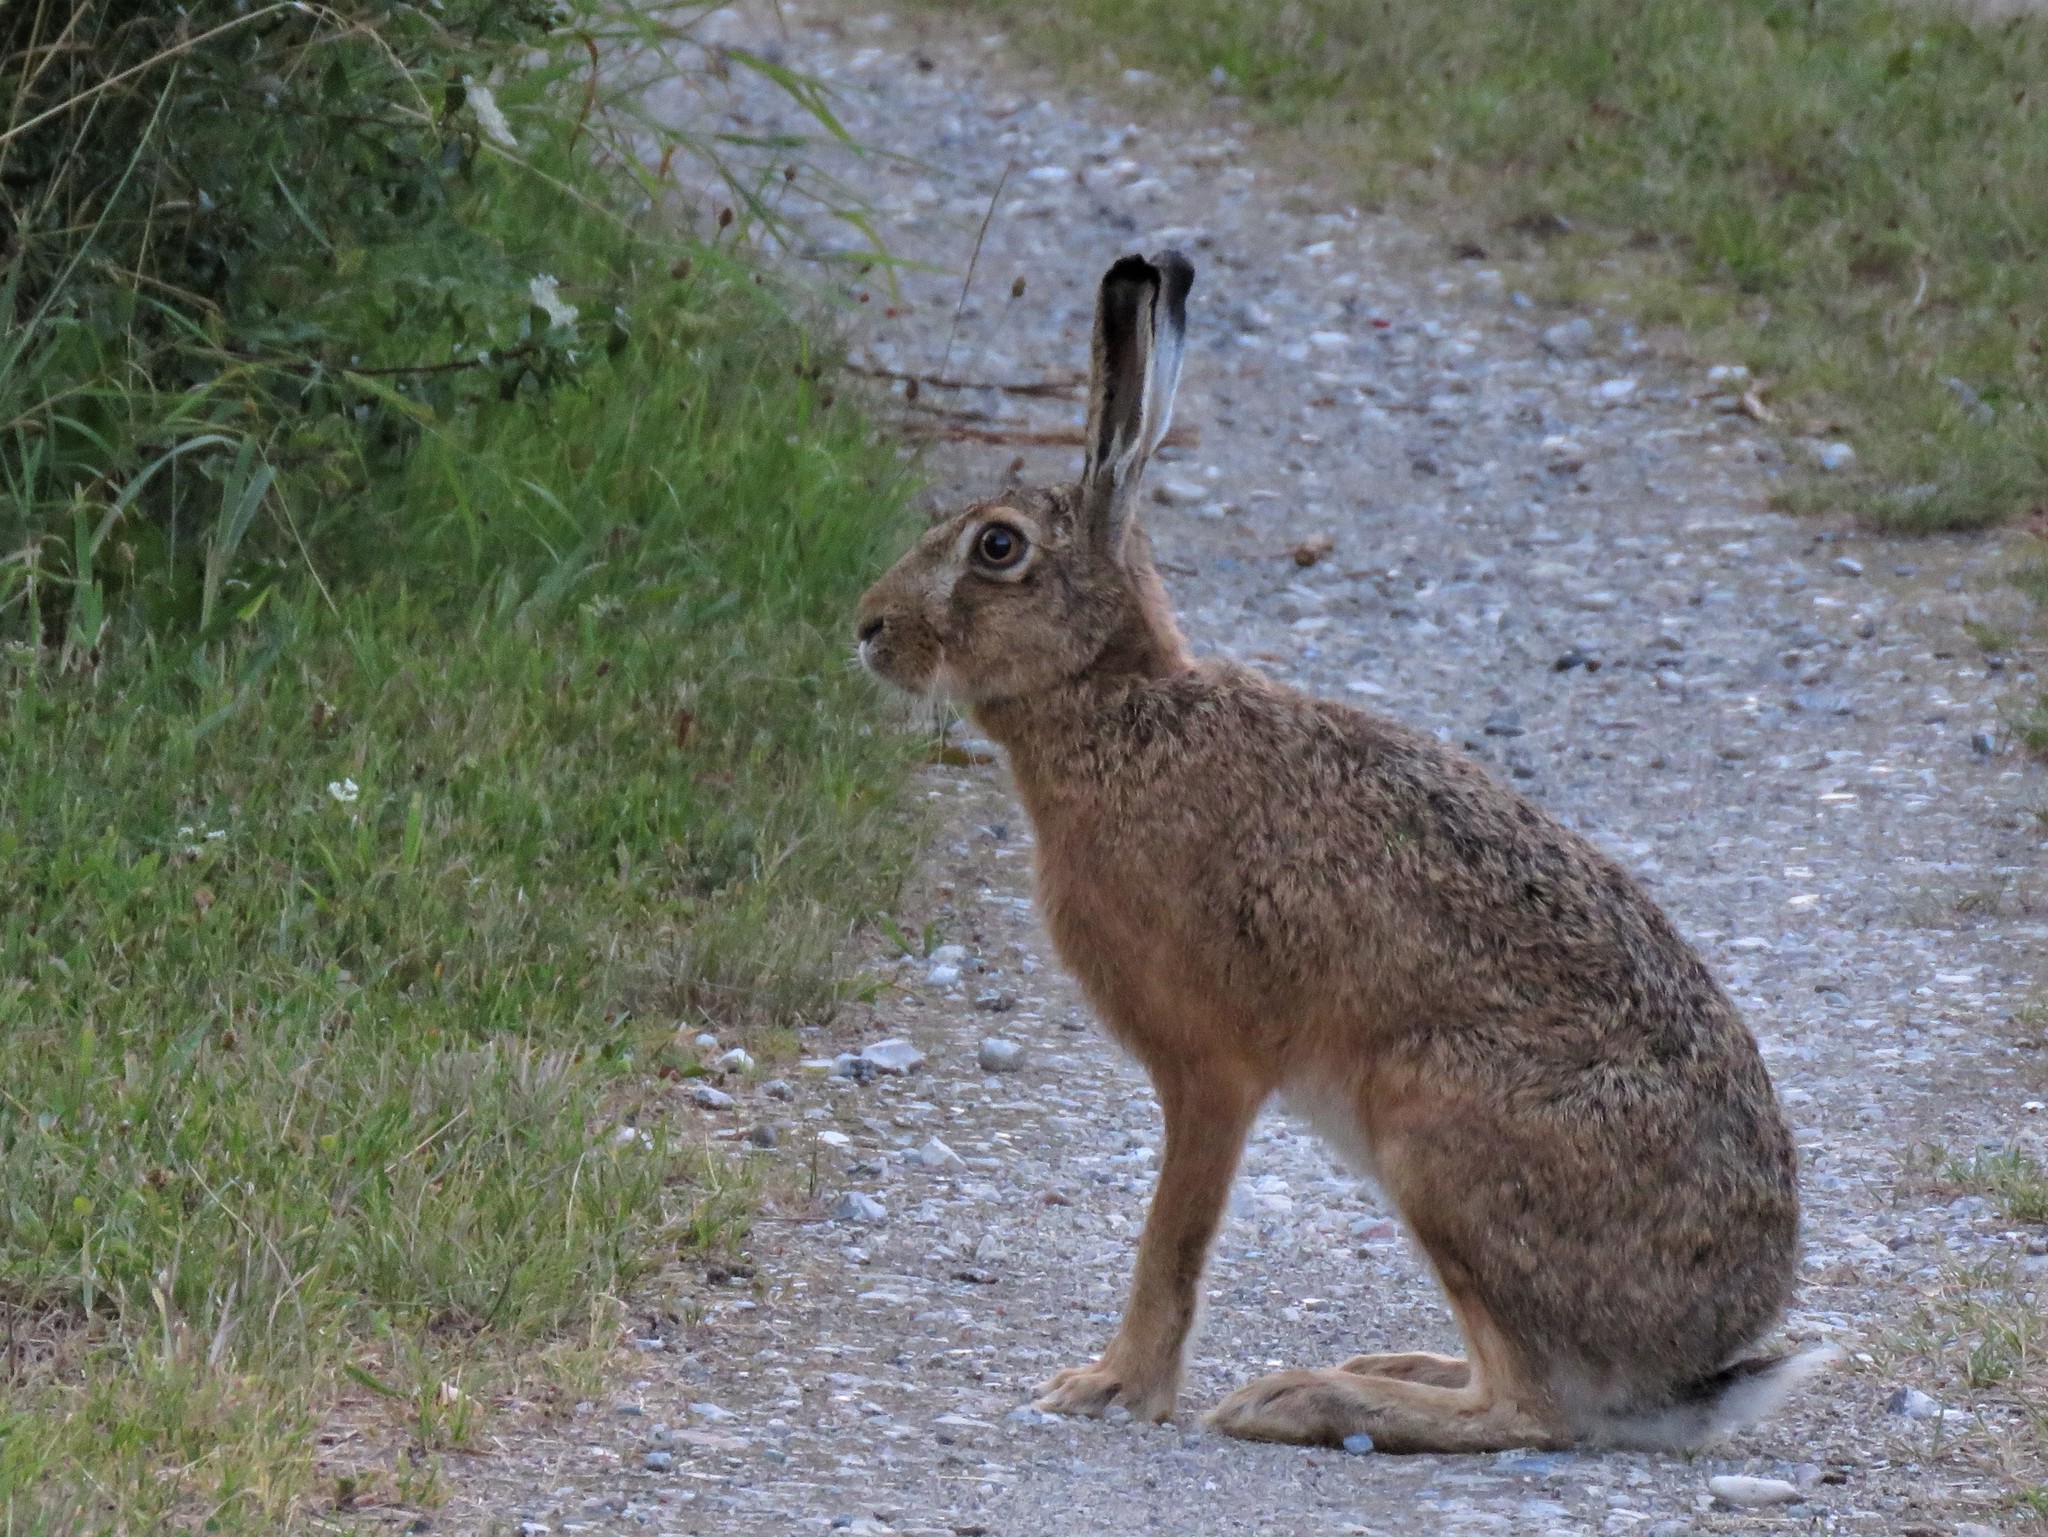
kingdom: Animalia
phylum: Chordata
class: Mammalia
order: Lagomorpha
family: Leporidae
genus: Lepus
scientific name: Lepus europaeus
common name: European hare
